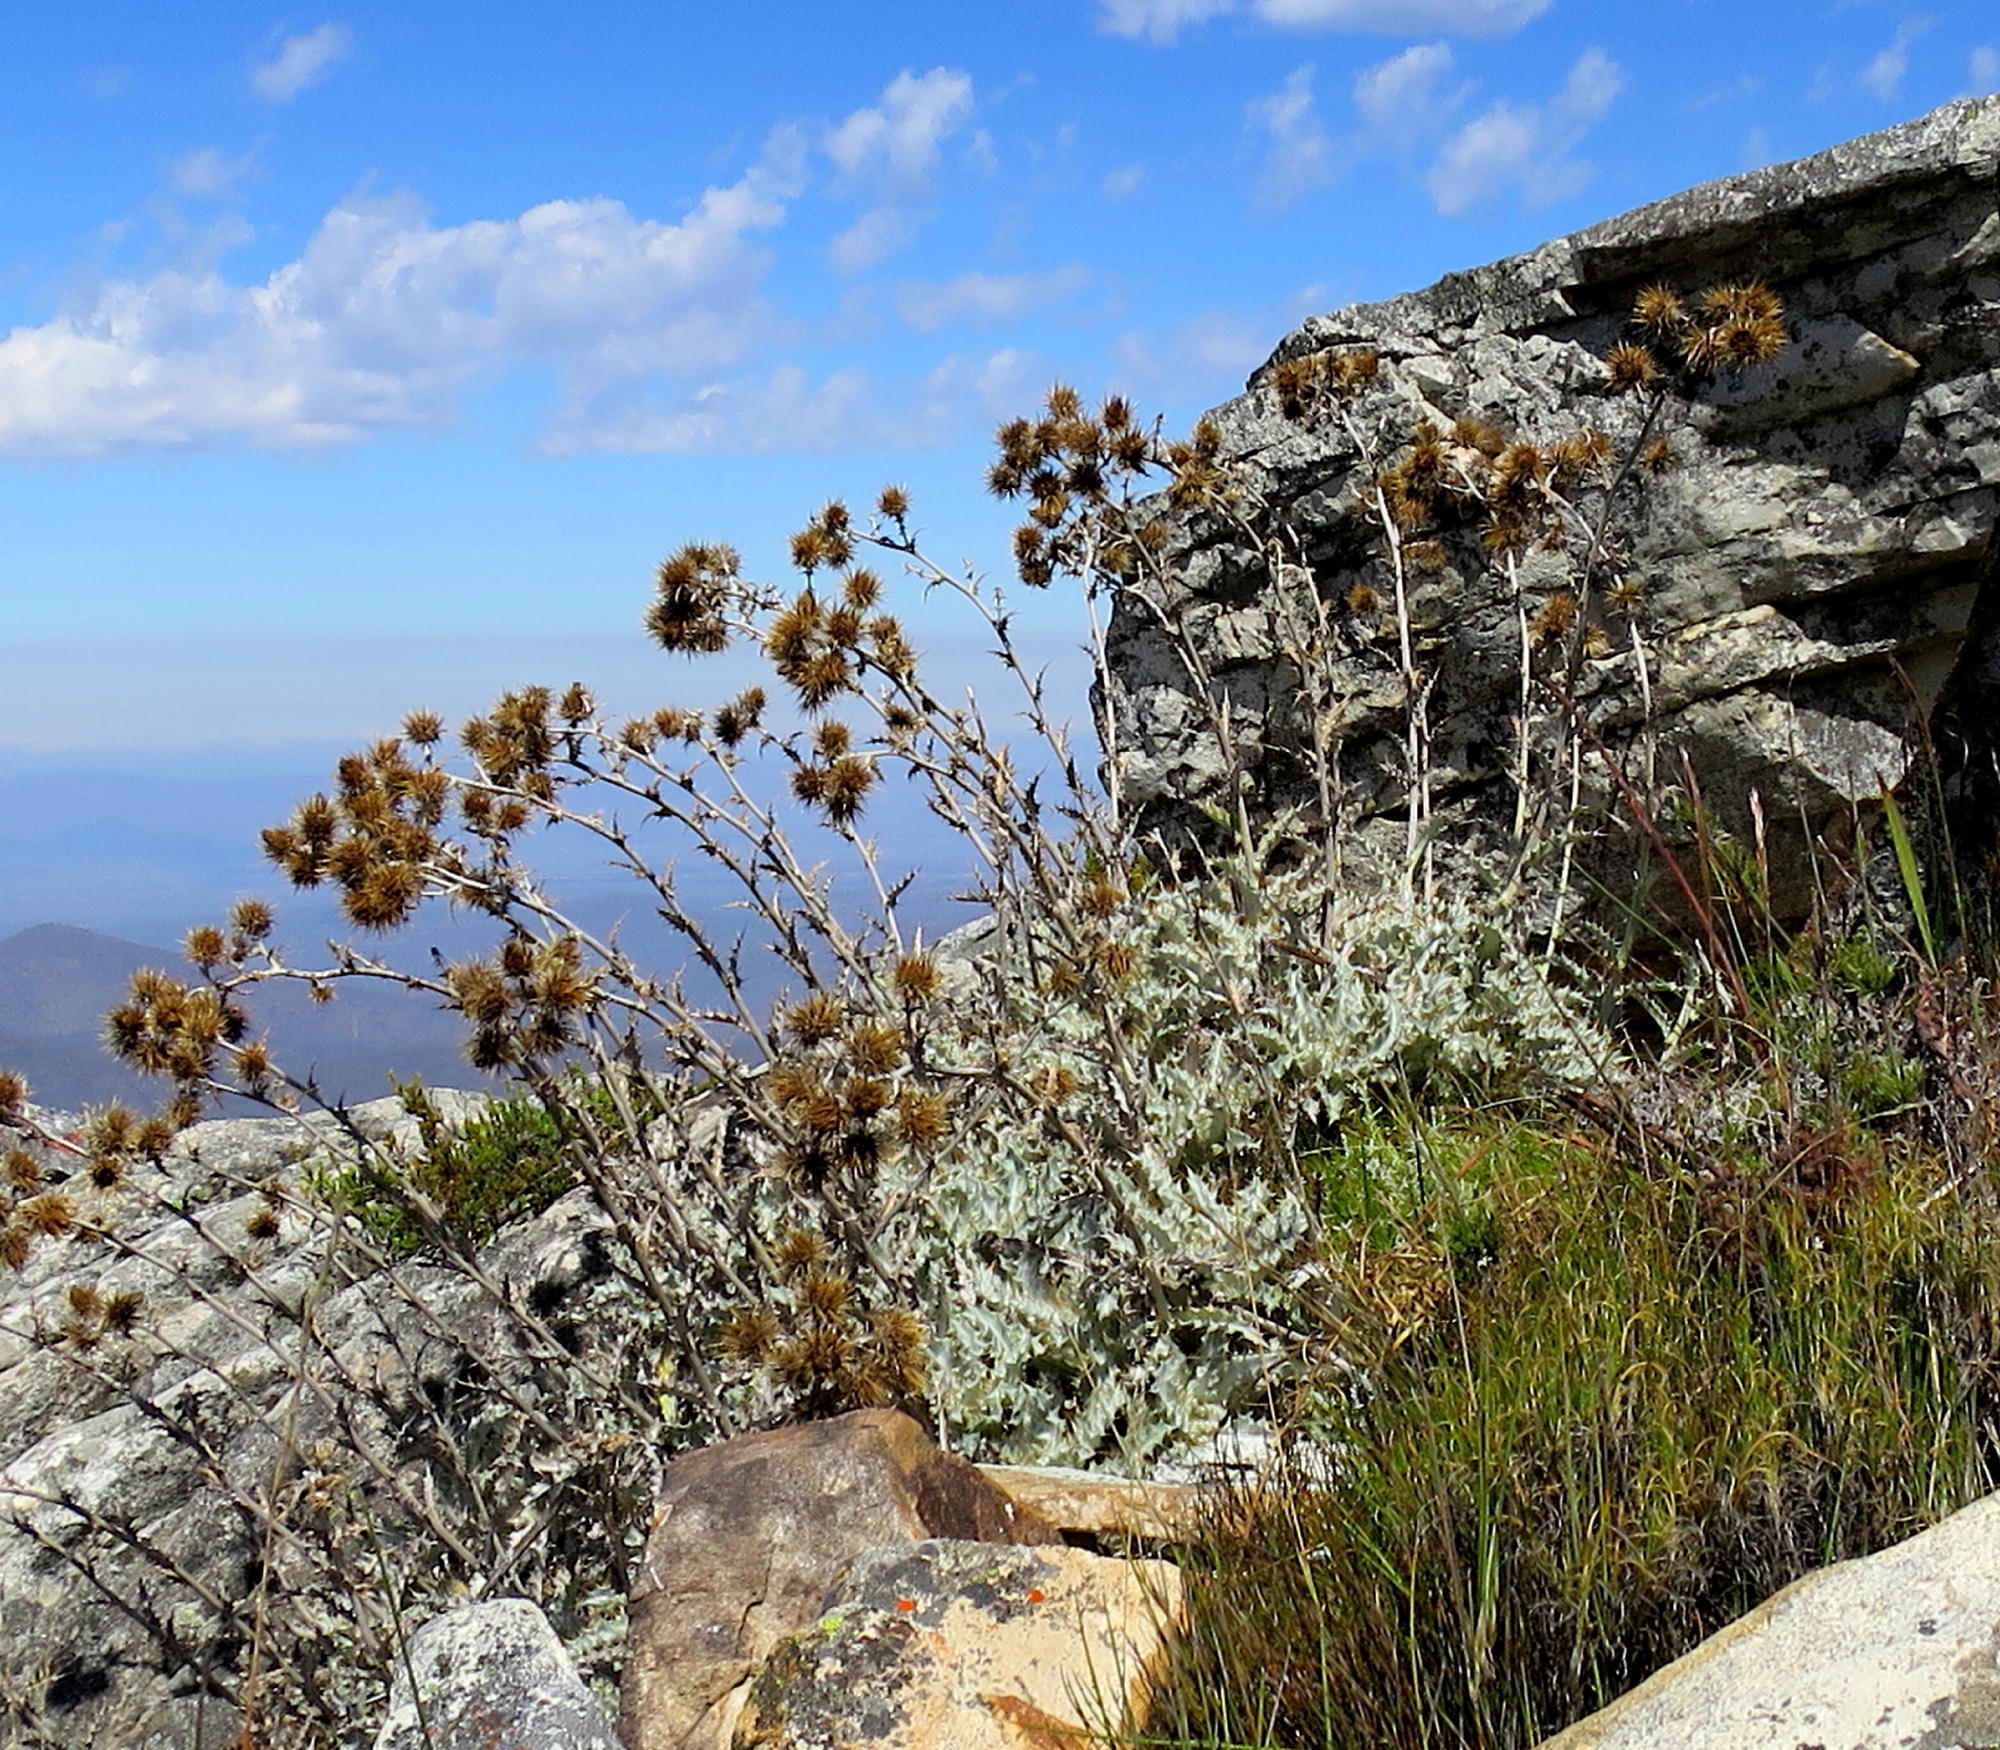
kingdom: Plantae
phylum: Tracheophyta
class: Magnoliopsida
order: Asterales
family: Asteraceae
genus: Berkheya
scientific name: Berkheya francisci
